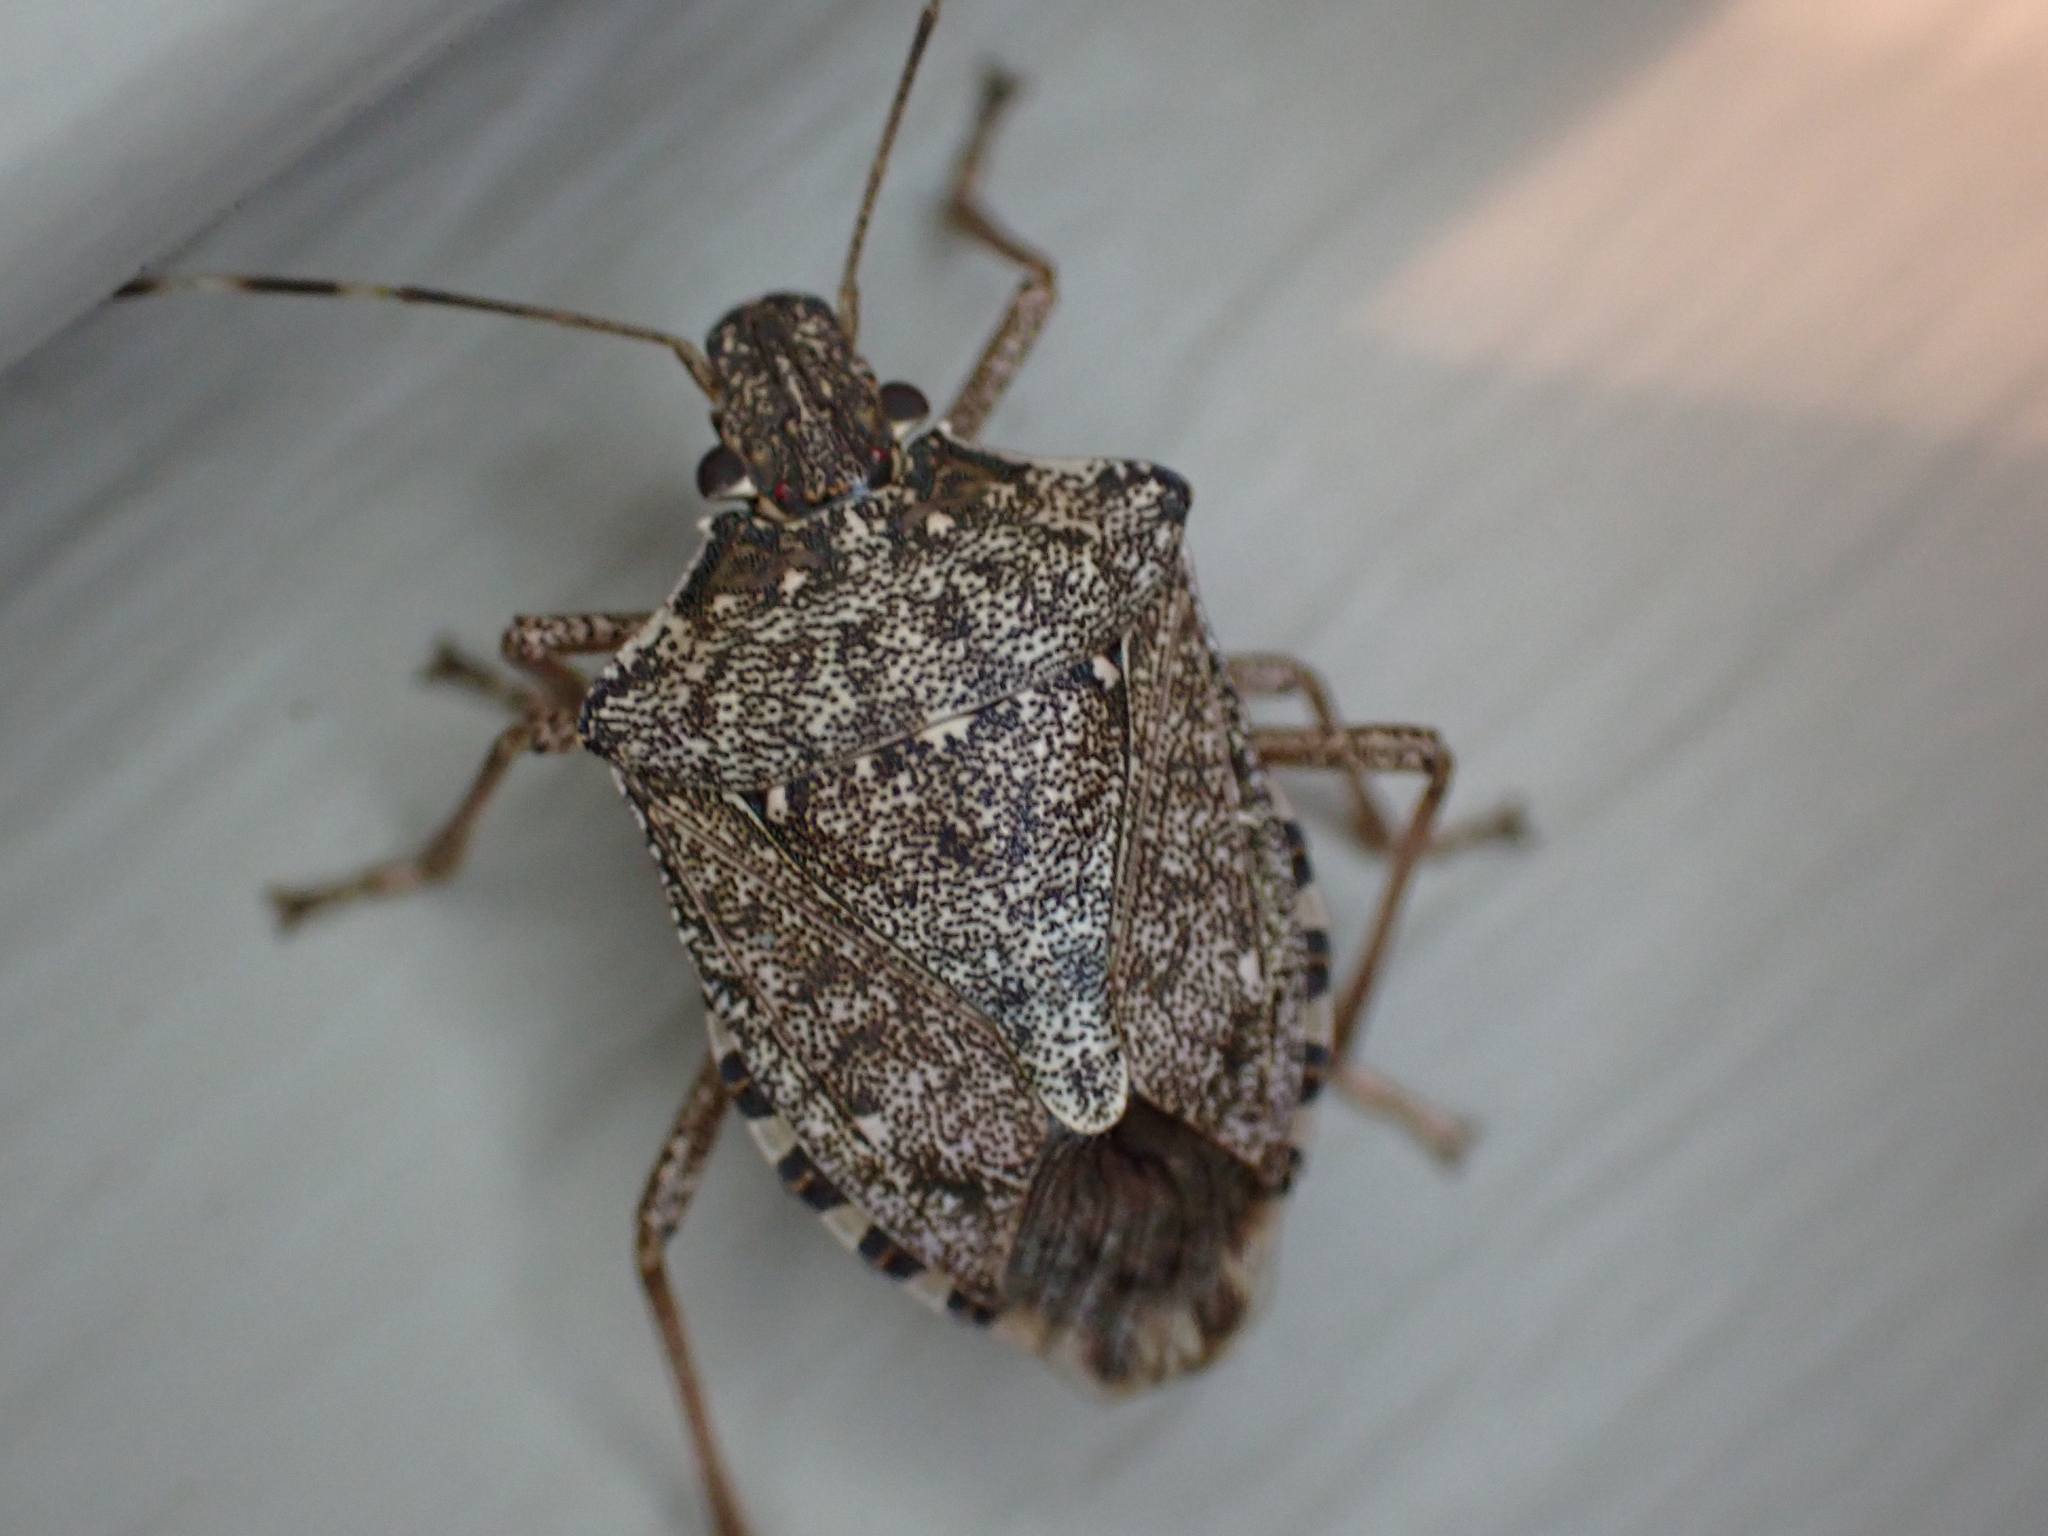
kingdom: Animalia
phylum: Arthropoda
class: Insecta
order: Hemiptera
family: Pentatomidae
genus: Halyomorpha
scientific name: Halyomorpha halys
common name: Brown marmorated stink bug
